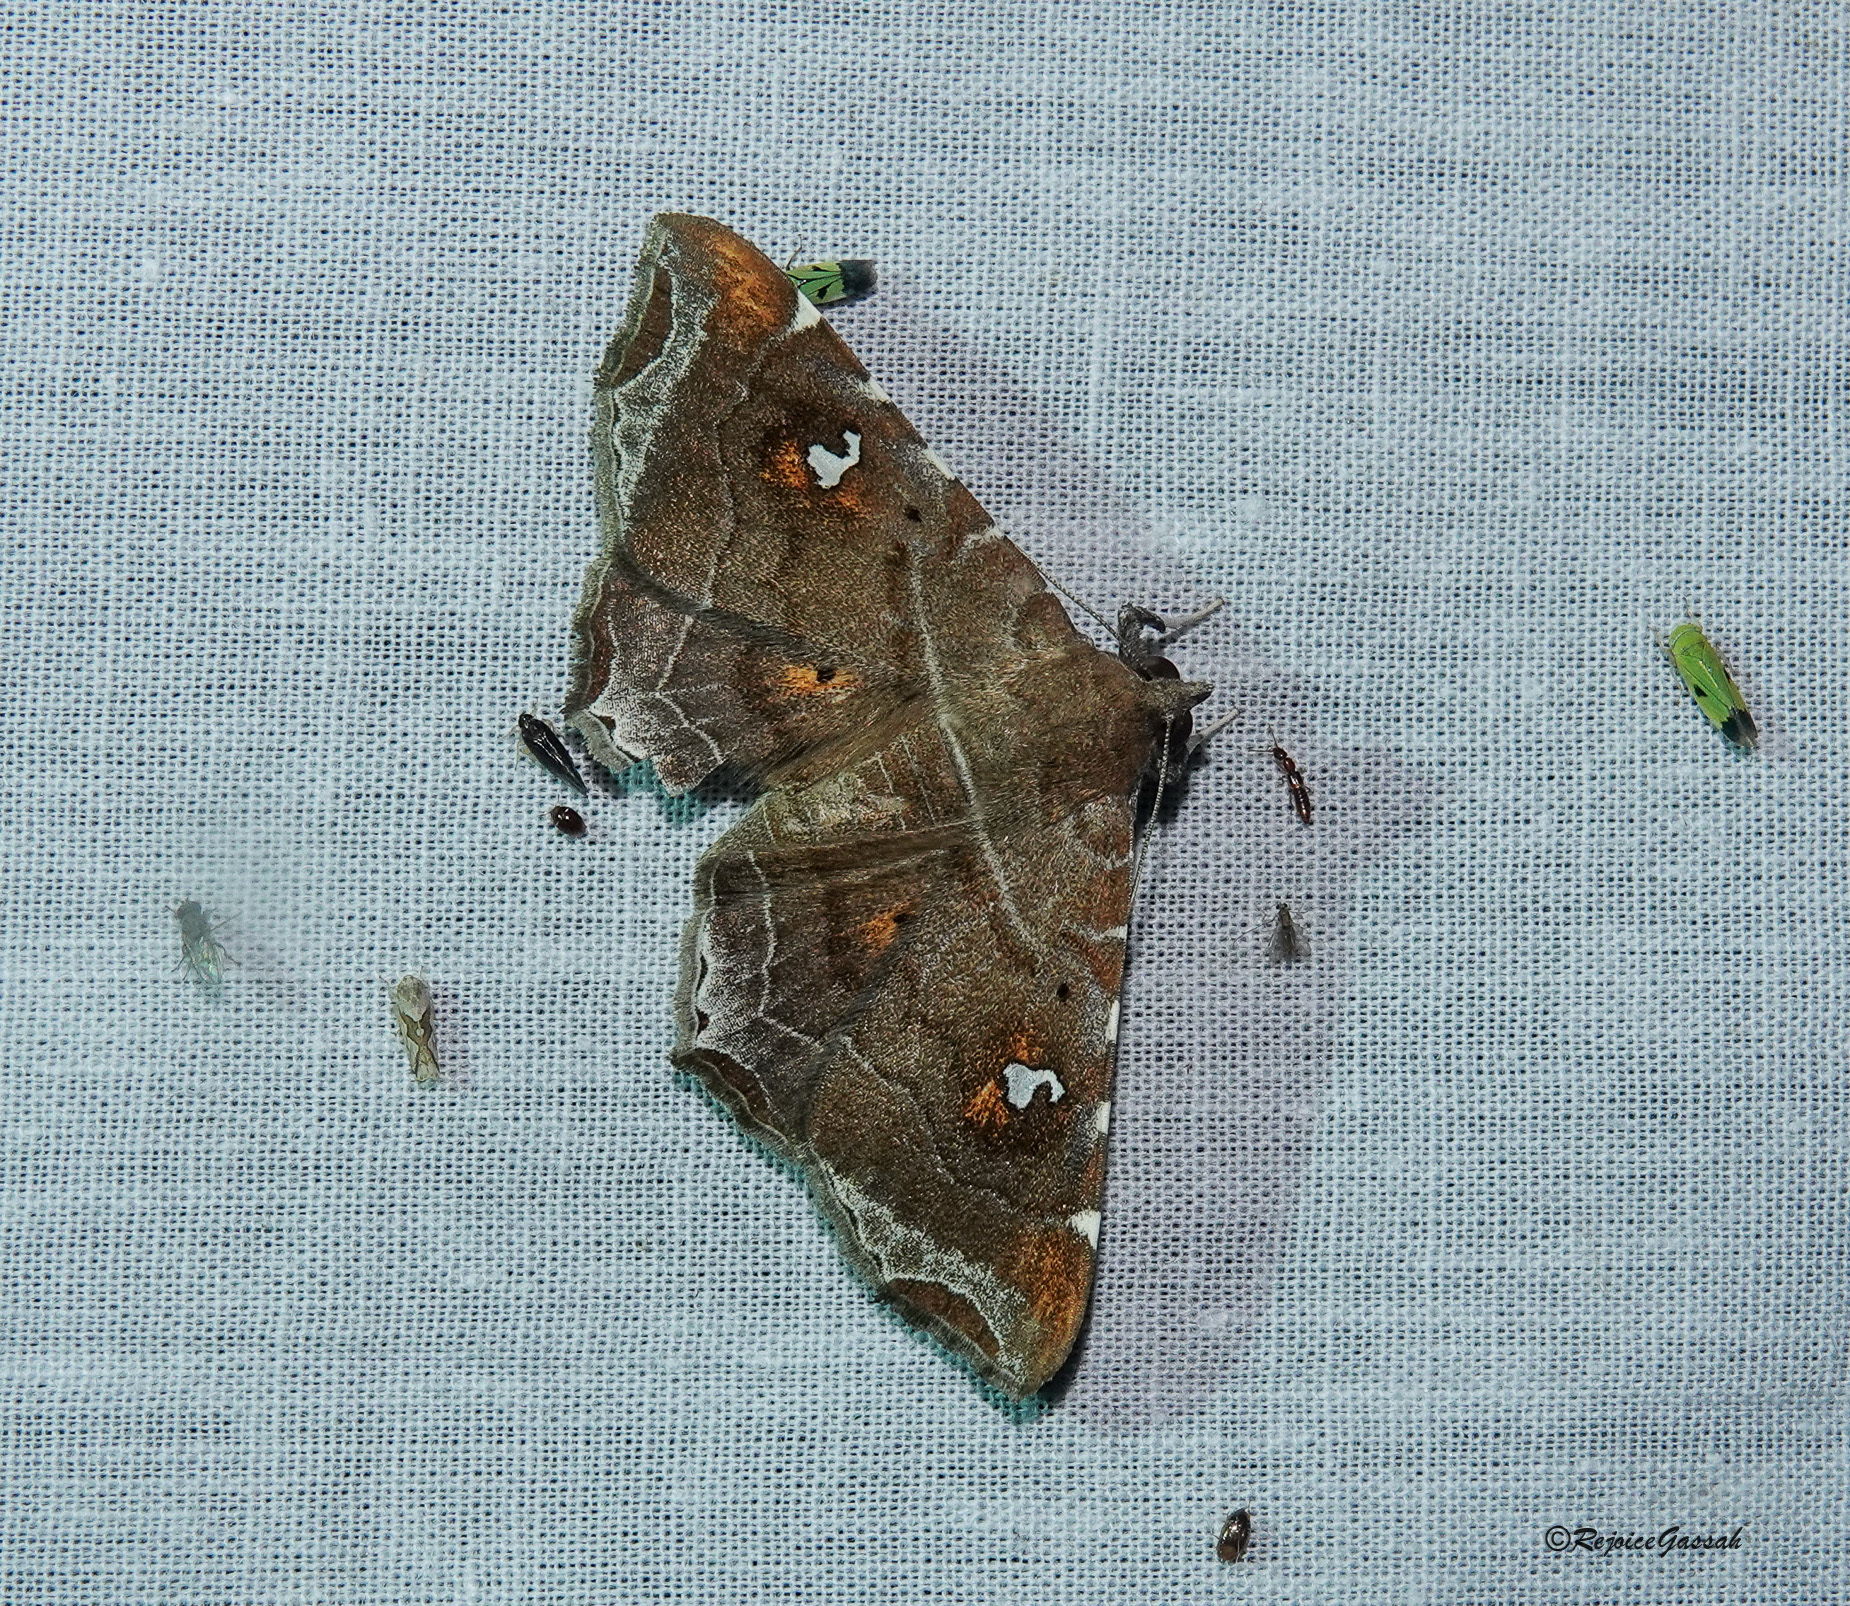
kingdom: Animalia
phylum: Arthropoda
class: Insecta
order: Lepidoptera
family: Erebidae
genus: Episparis
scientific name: Episparis liturata
